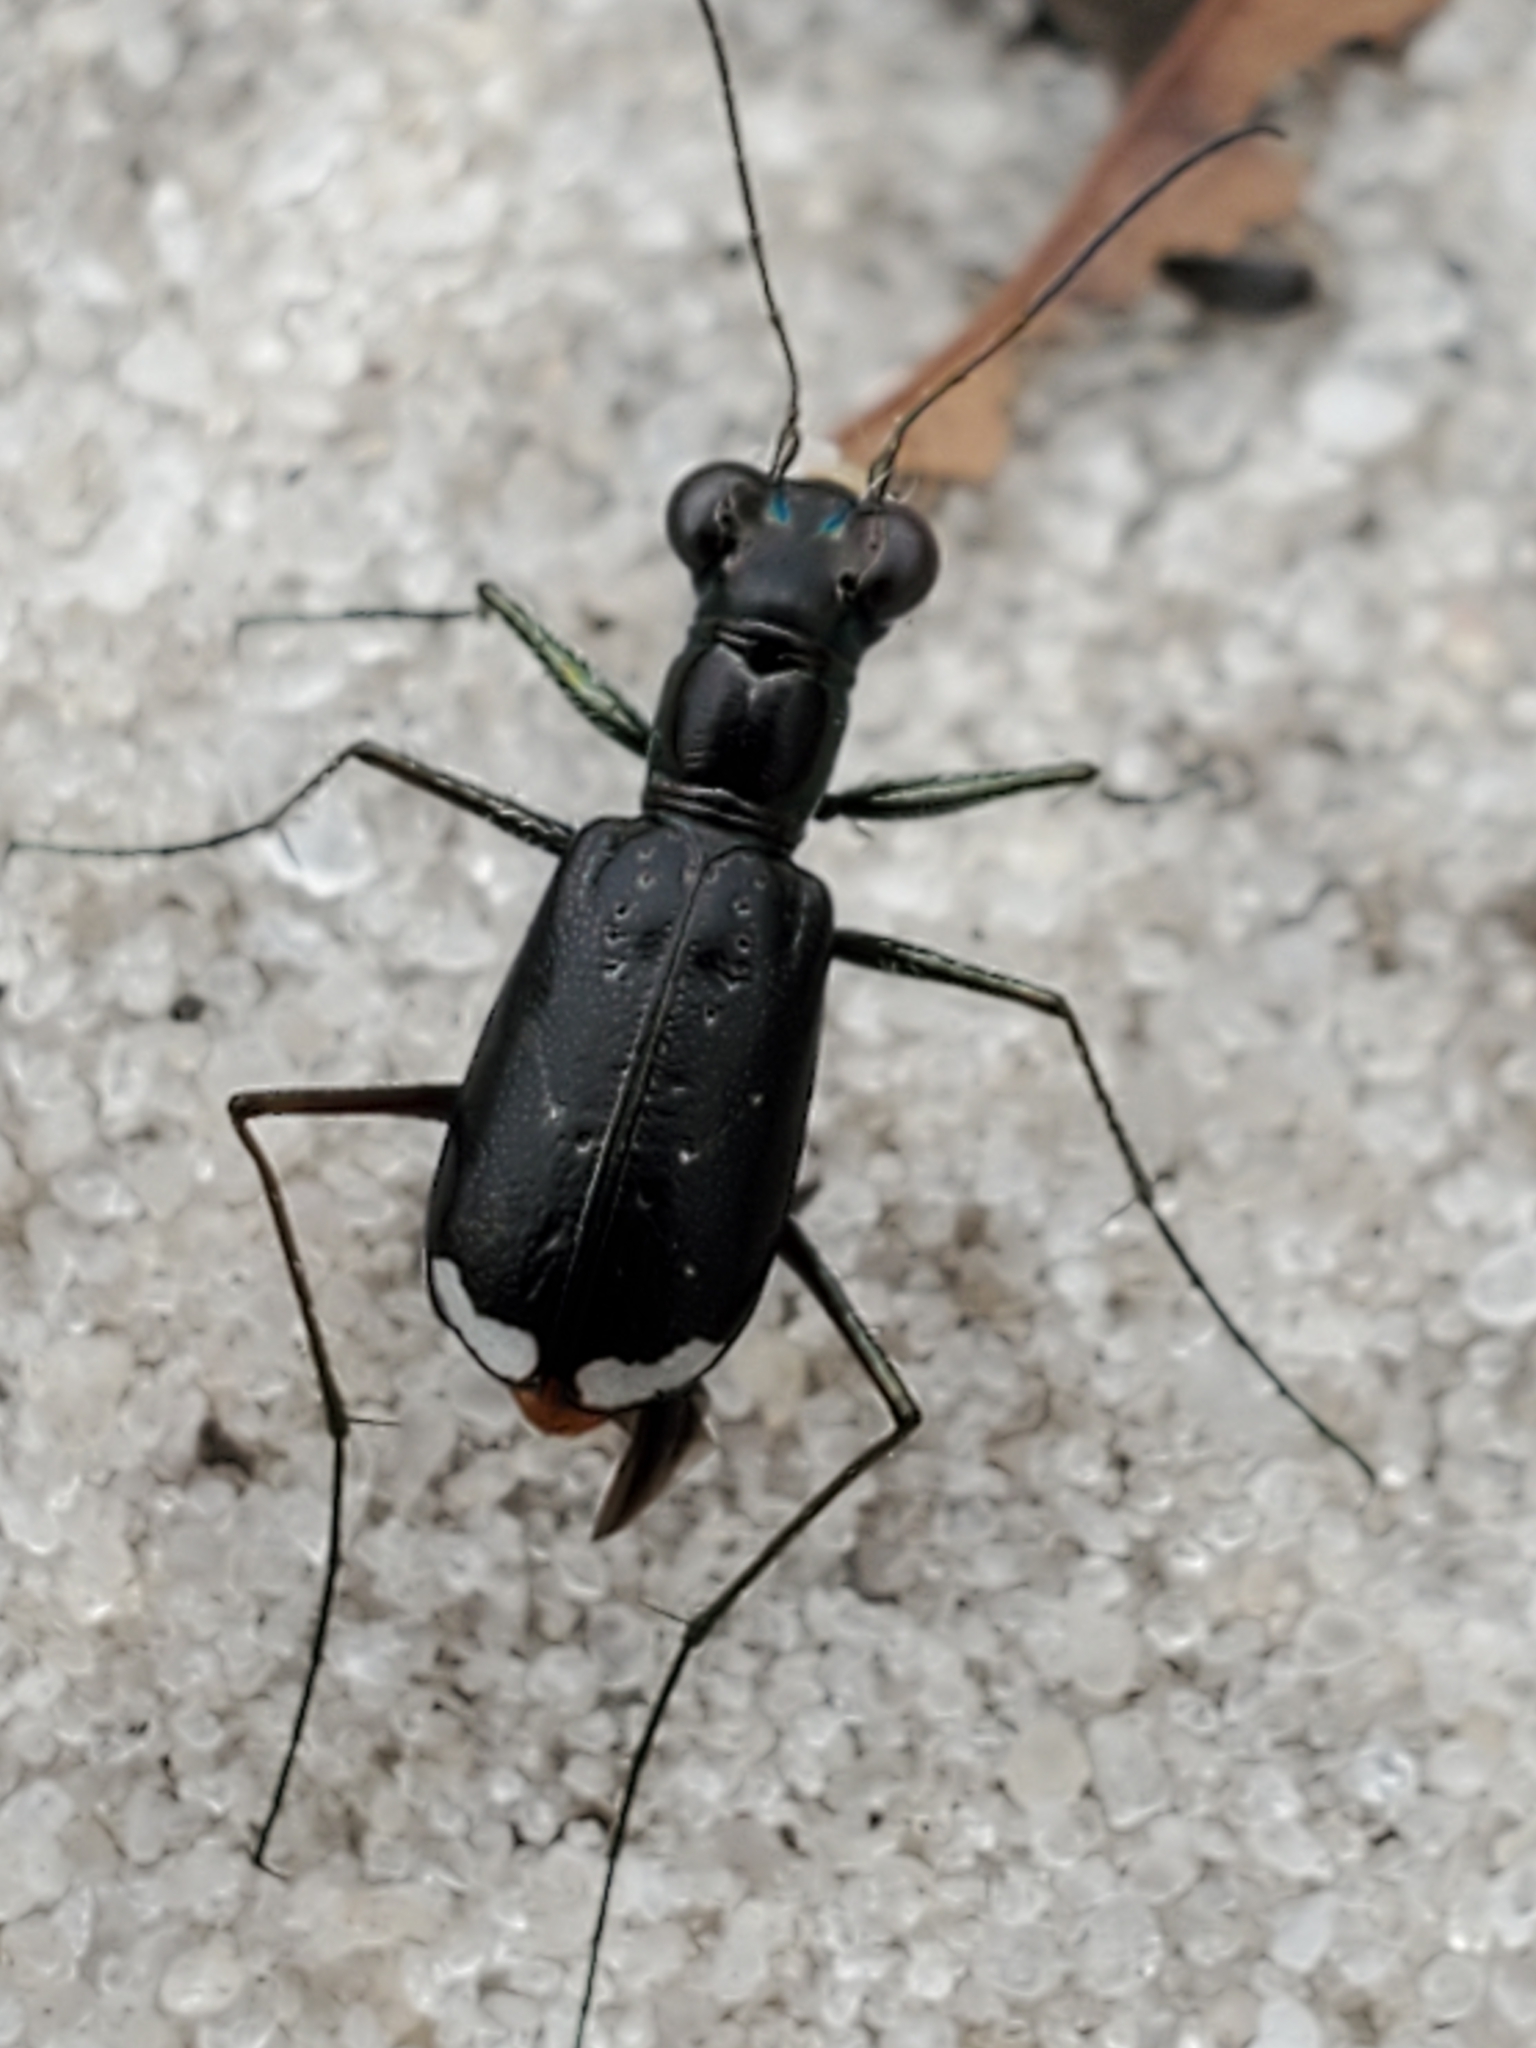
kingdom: Animalia
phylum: Arthropoda
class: Insecta
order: Coleoptera
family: Carabidae
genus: Cicindela
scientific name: Cicindela abdominalis
